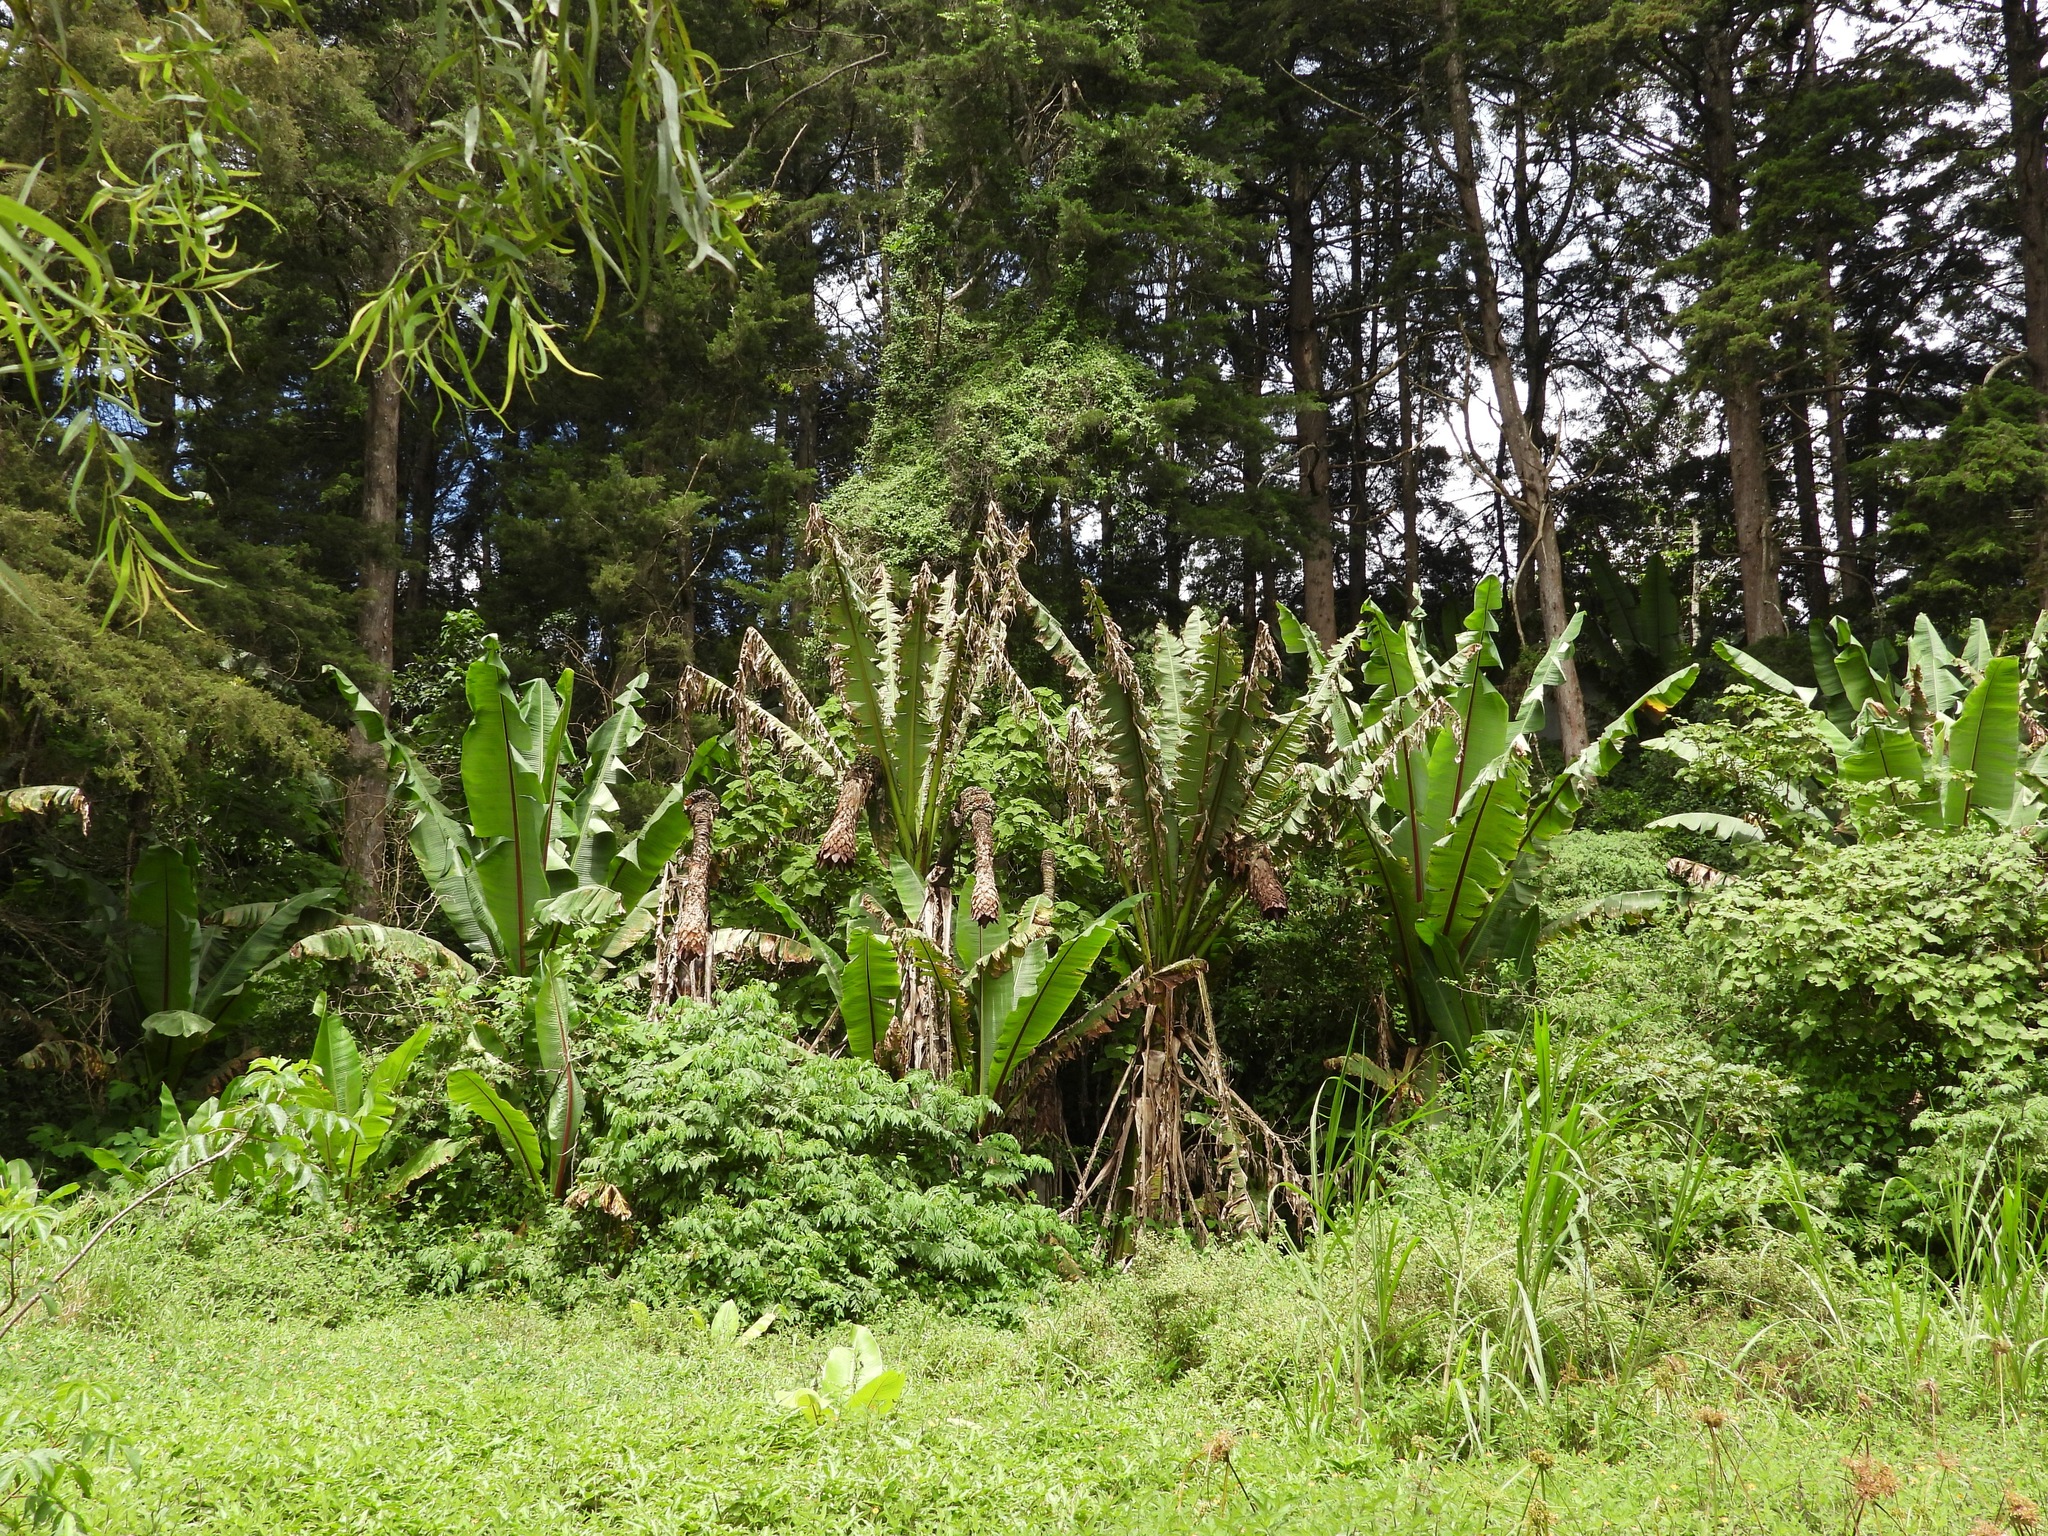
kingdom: Plantae
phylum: Tracheophyta
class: Liliopsida
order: Zingiberales
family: Musaceae
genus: Ensete
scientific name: Ensete ventricosum
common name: Abyssinian banana
